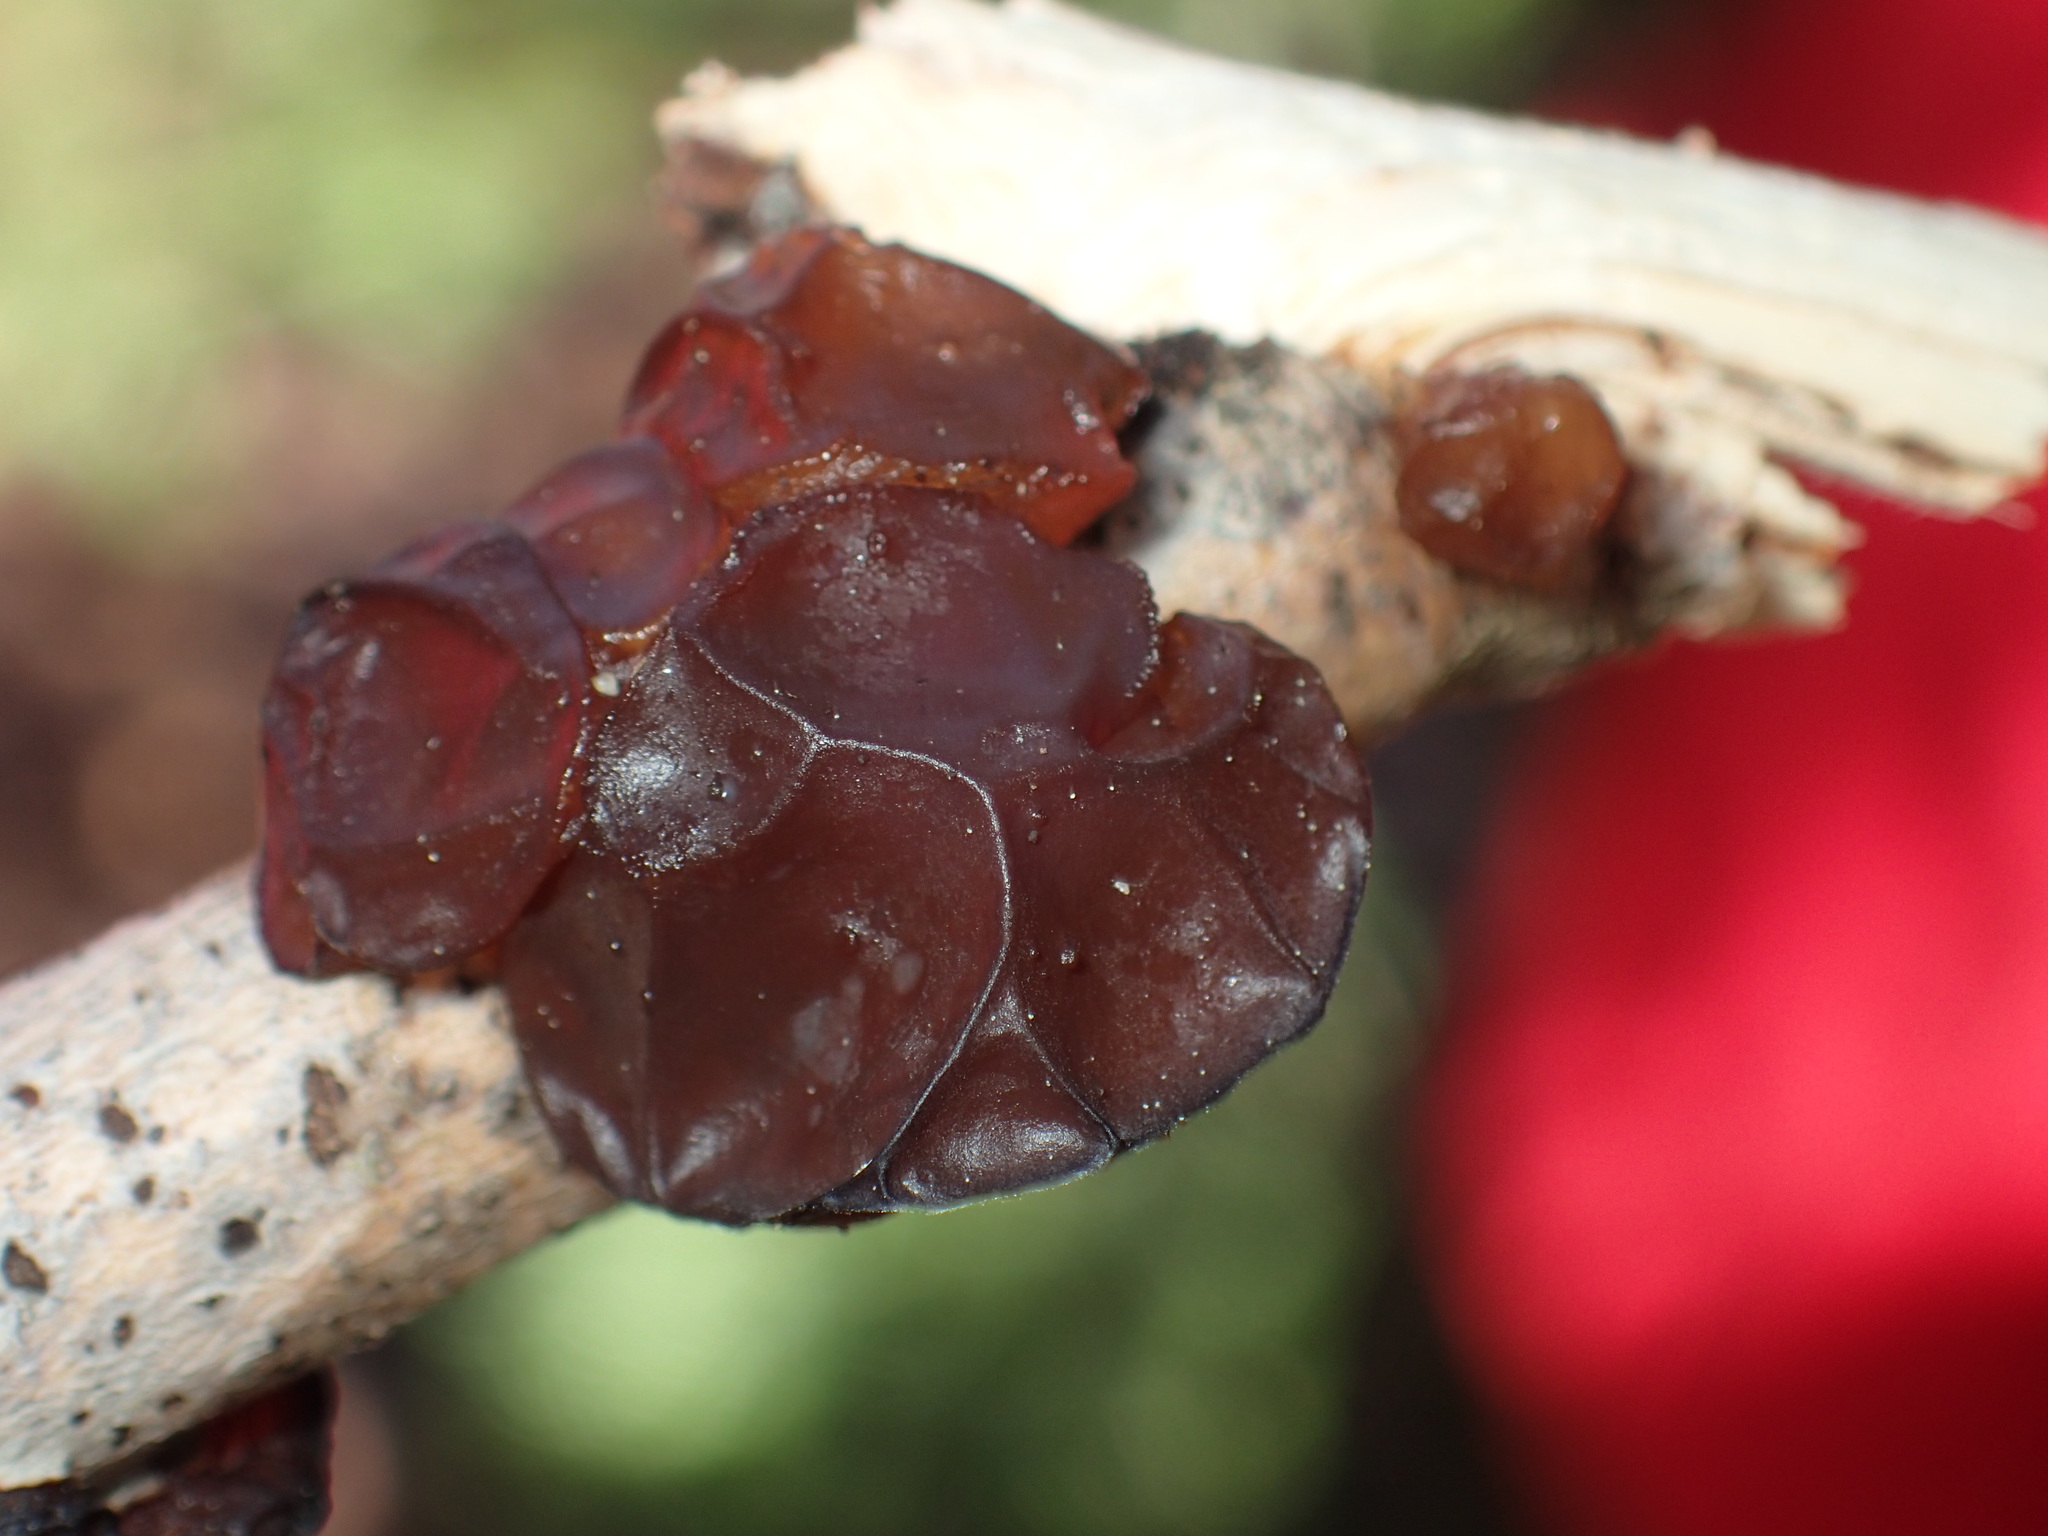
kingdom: Fungi
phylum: Basidiomycota
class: Agaricomycetes
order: Auriculariales
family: Auriculariaceae
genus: Exidia
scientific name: Exidia
